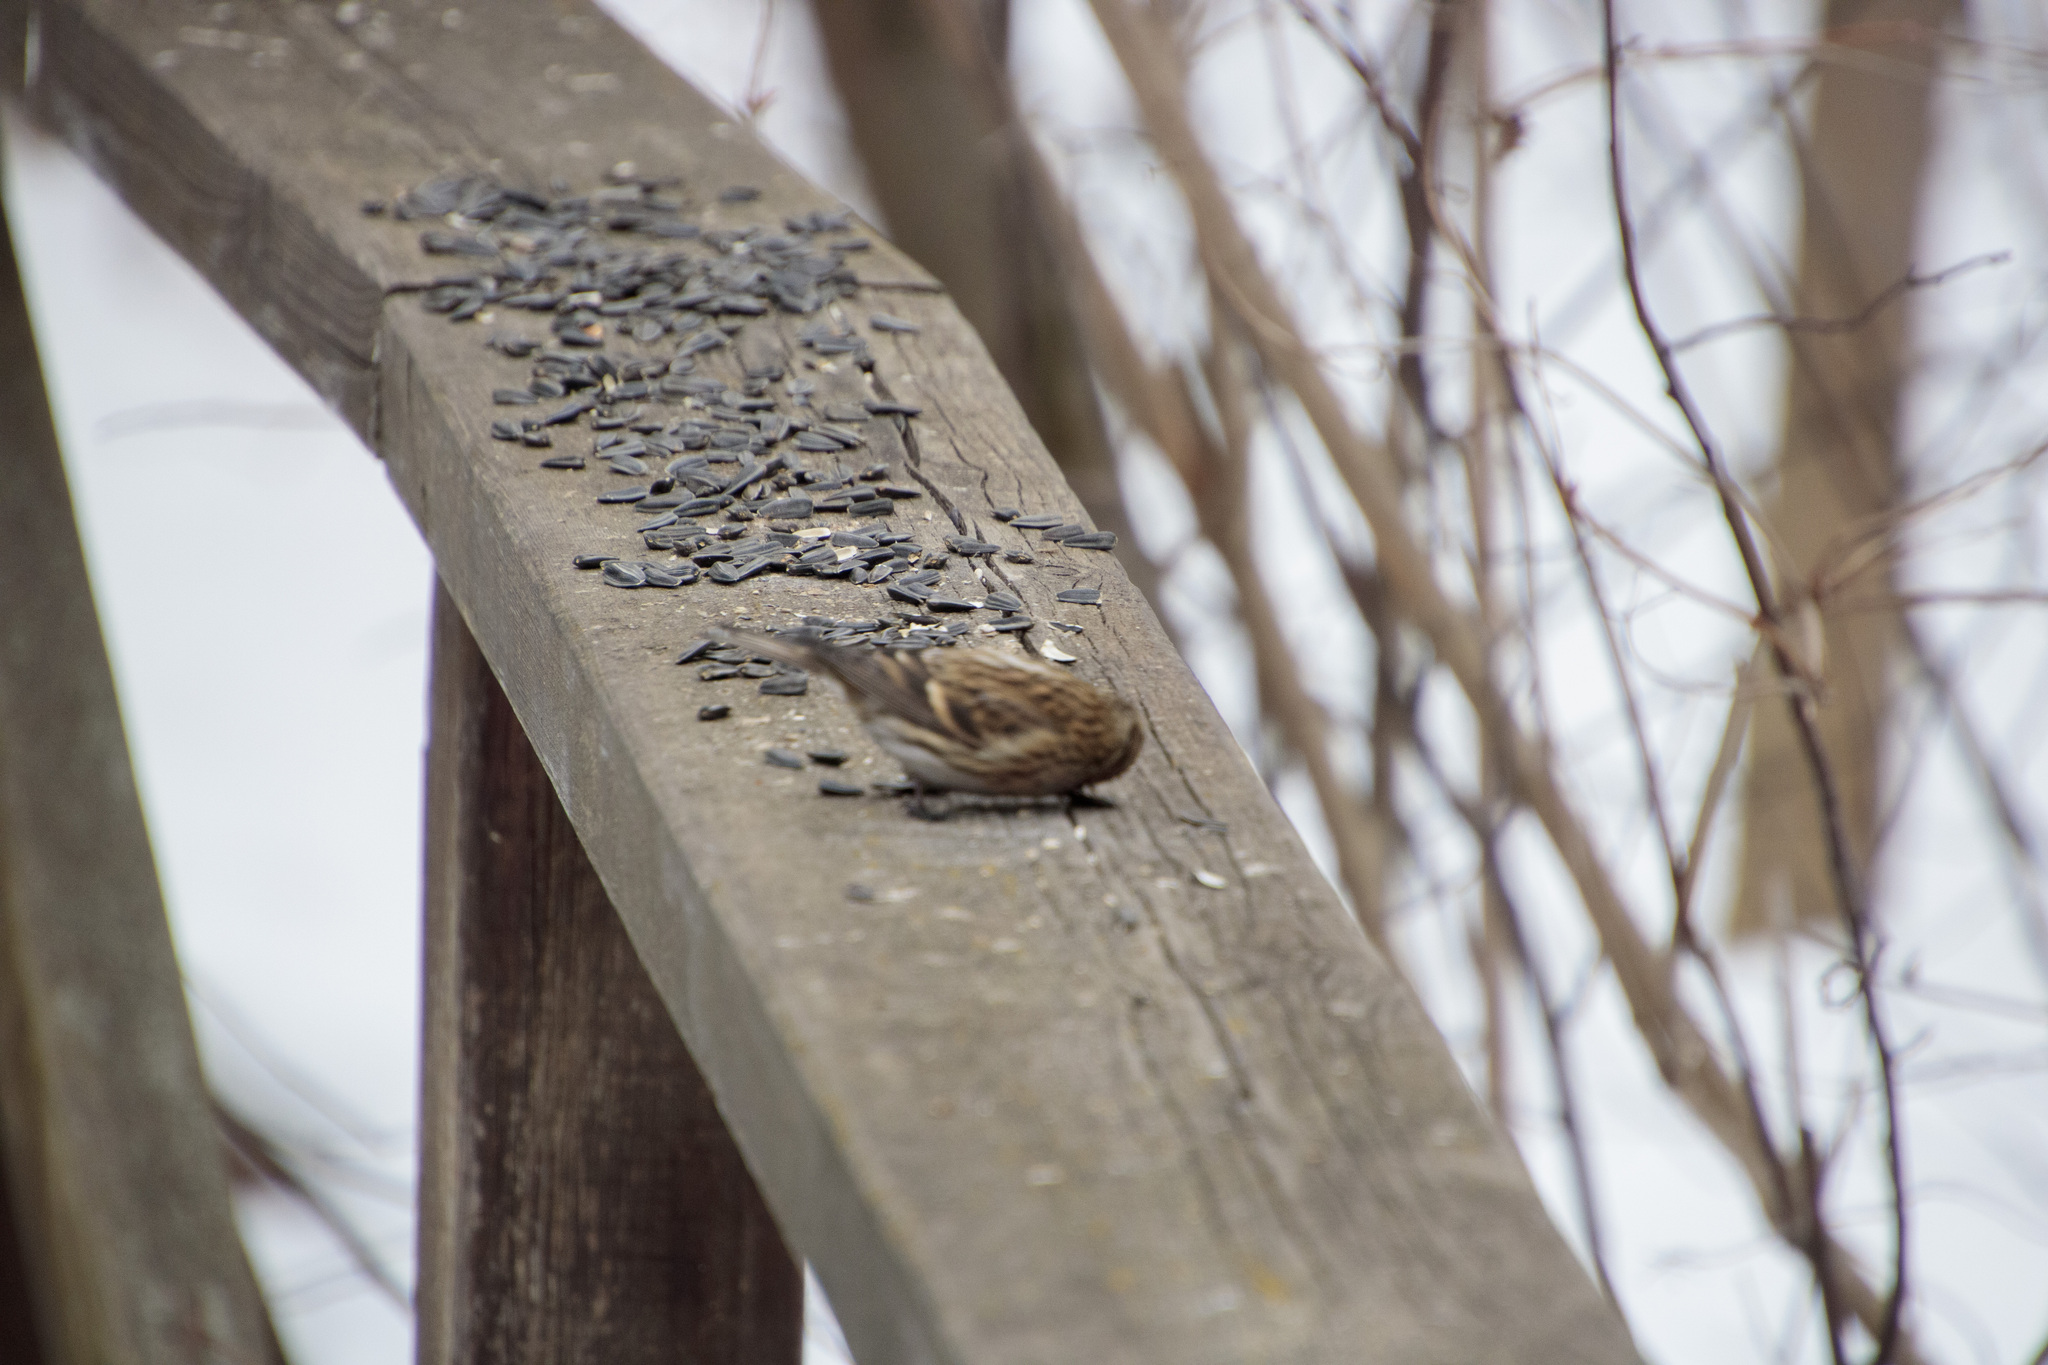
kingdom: Animalia
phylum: Chordata
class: Aves
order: Passeriformes
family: Fringillidae
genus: Acanthis
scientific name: Acanthis flammea
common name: Common redpoll
